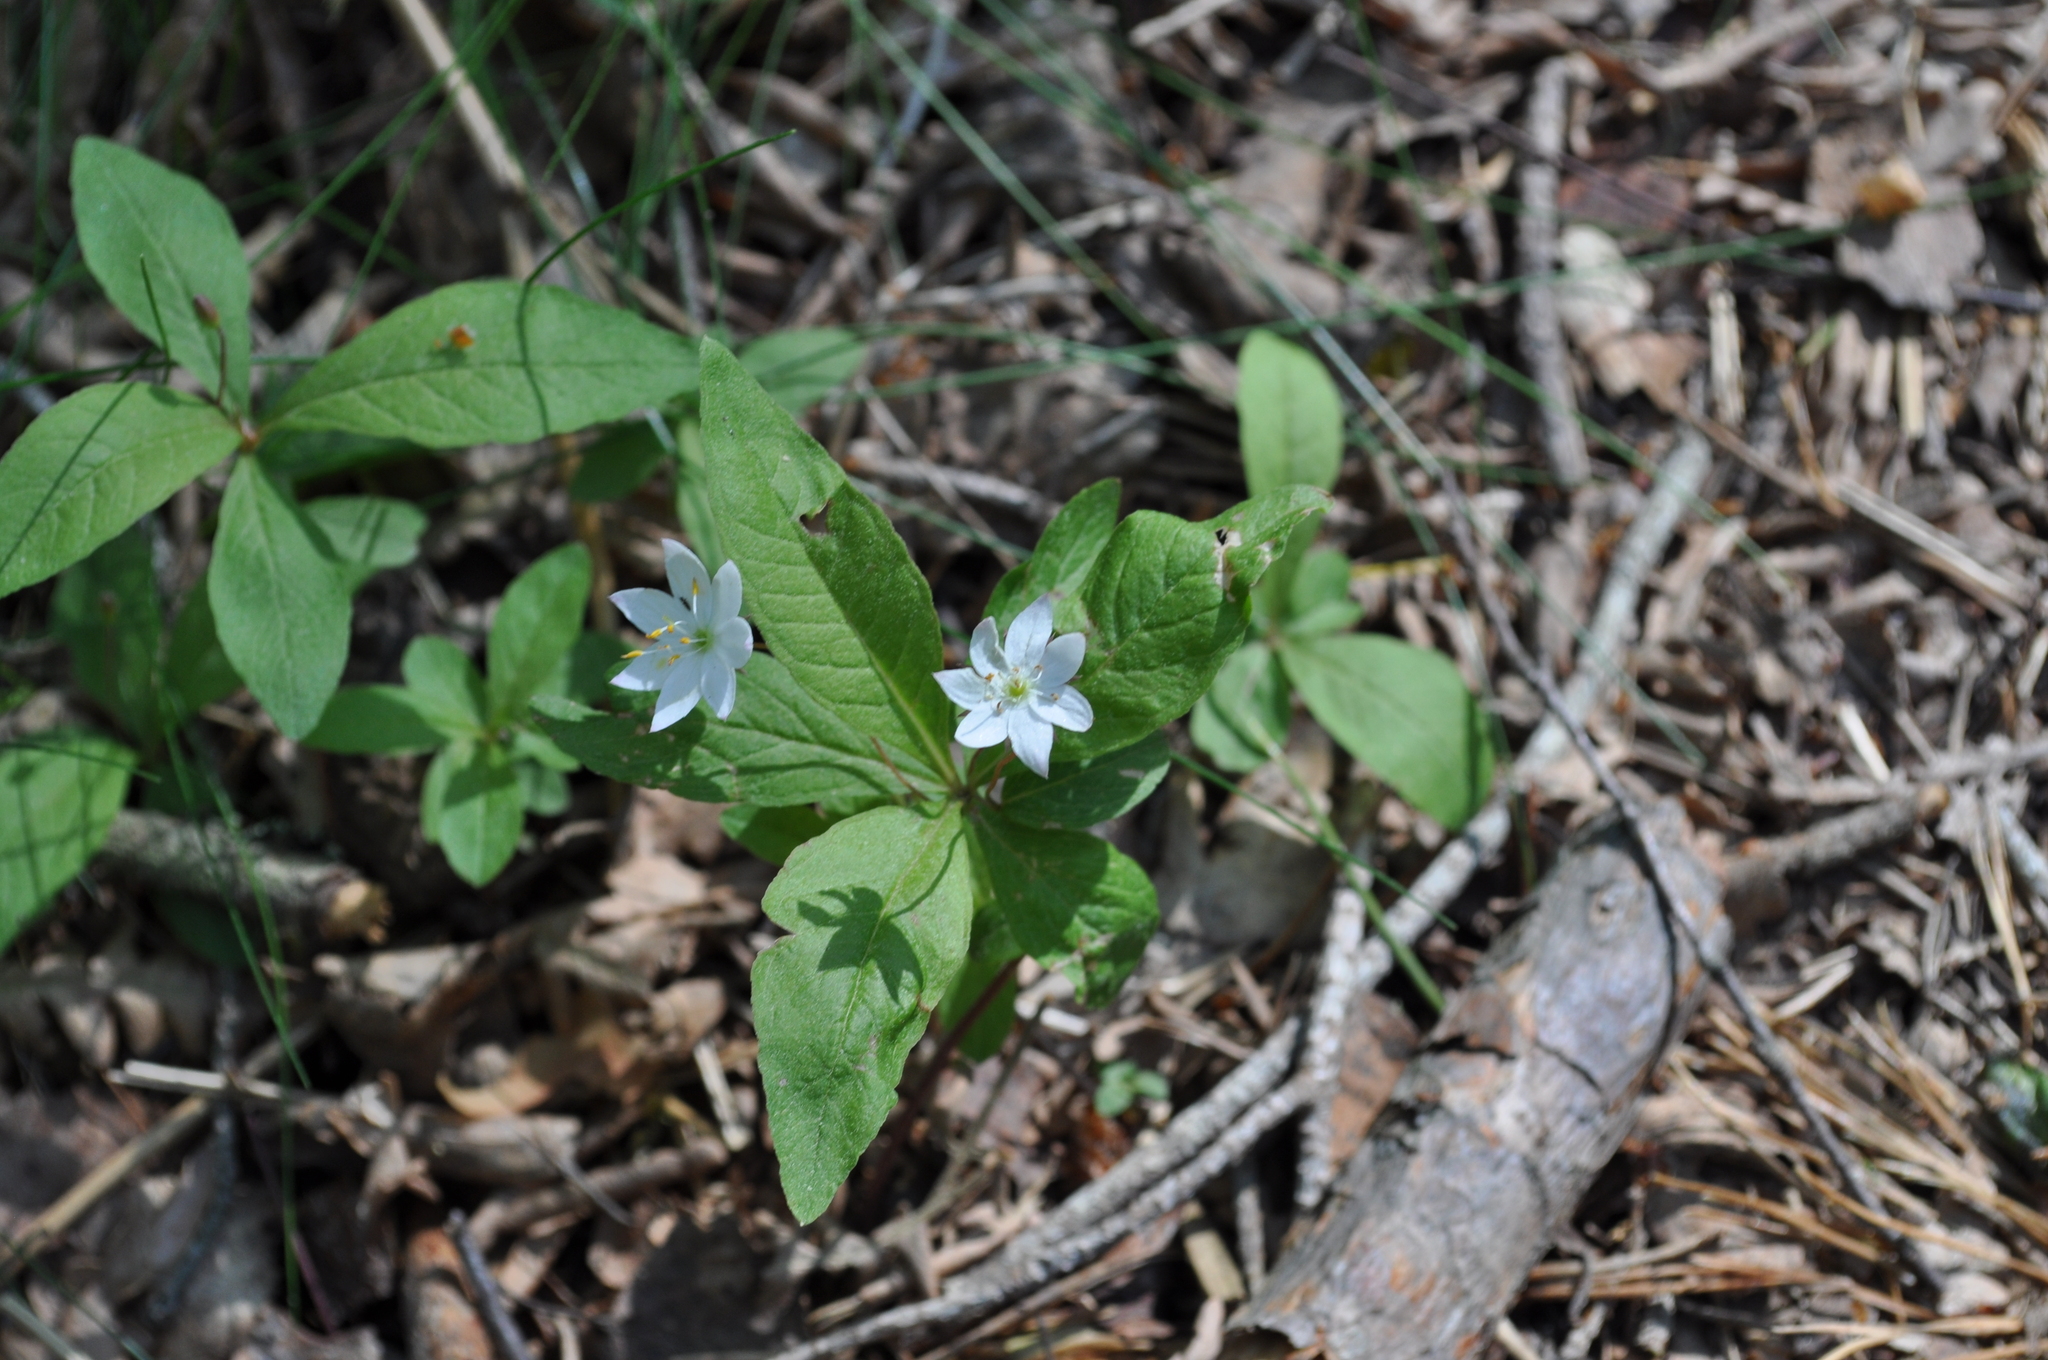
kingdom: Plantae
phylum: Tracheophyta
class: Magnoliopsida
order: Ericales
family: Primulaceae
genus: Lysimachia
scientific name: Lysimachia europaea
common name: Arctic starflower
